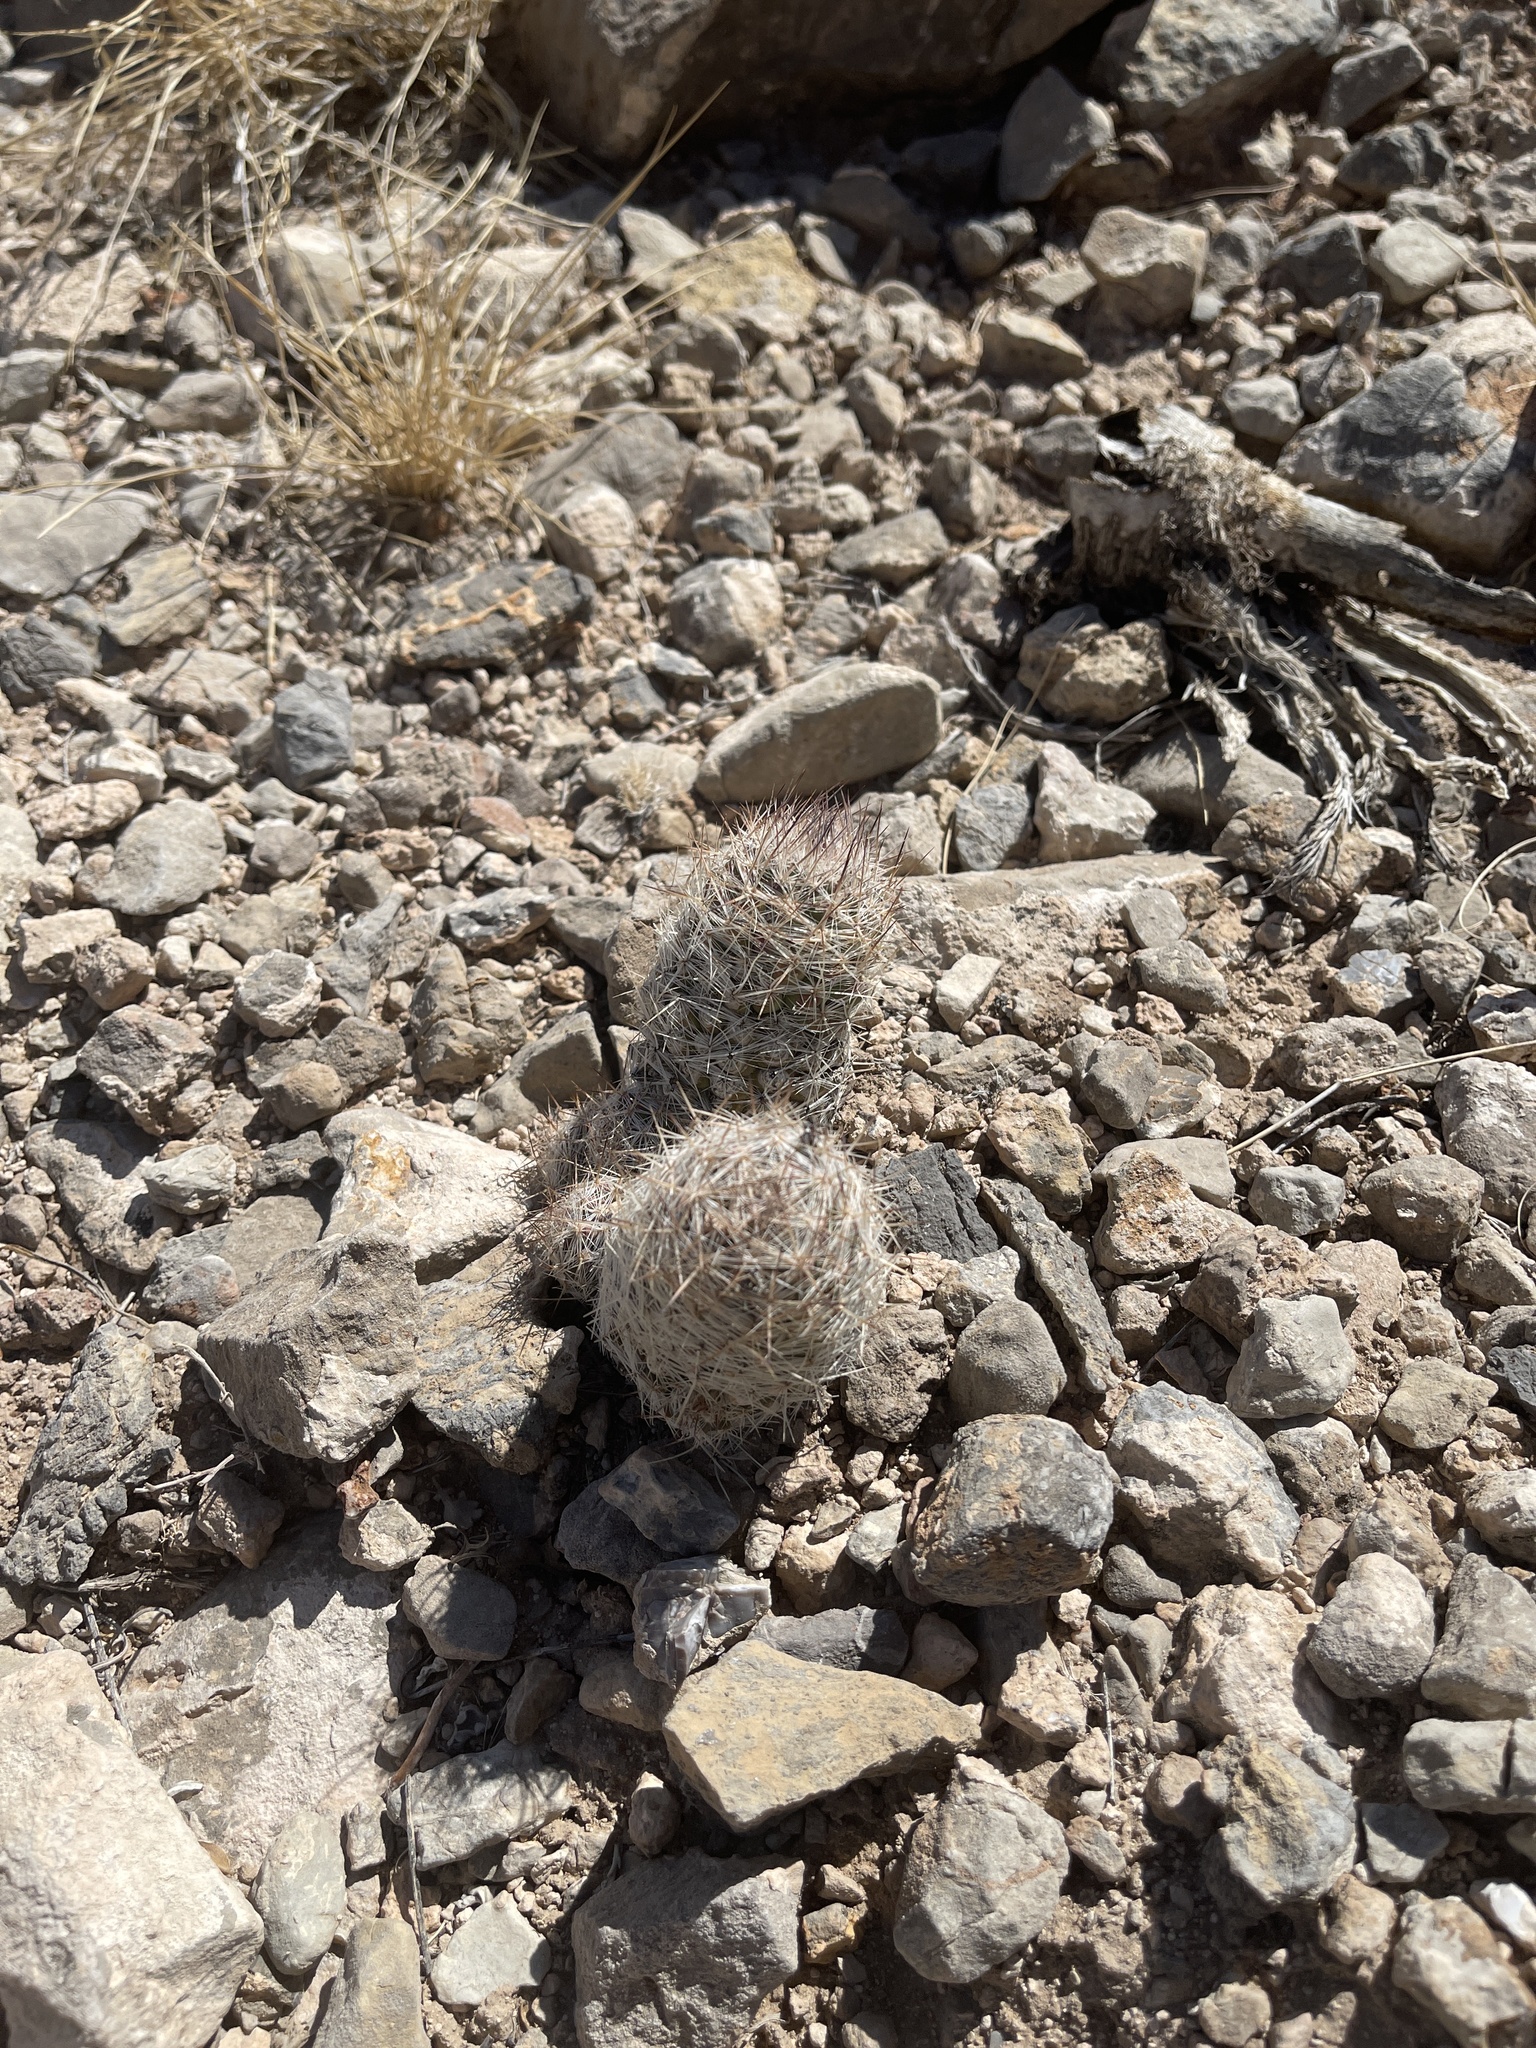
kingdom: Plantae
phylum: Tracheophyta
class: Magnoliopsida
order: Caryophyllales
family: Cactaceae
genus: Pelecyphora
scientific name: Pelecyphora tuberculosa
